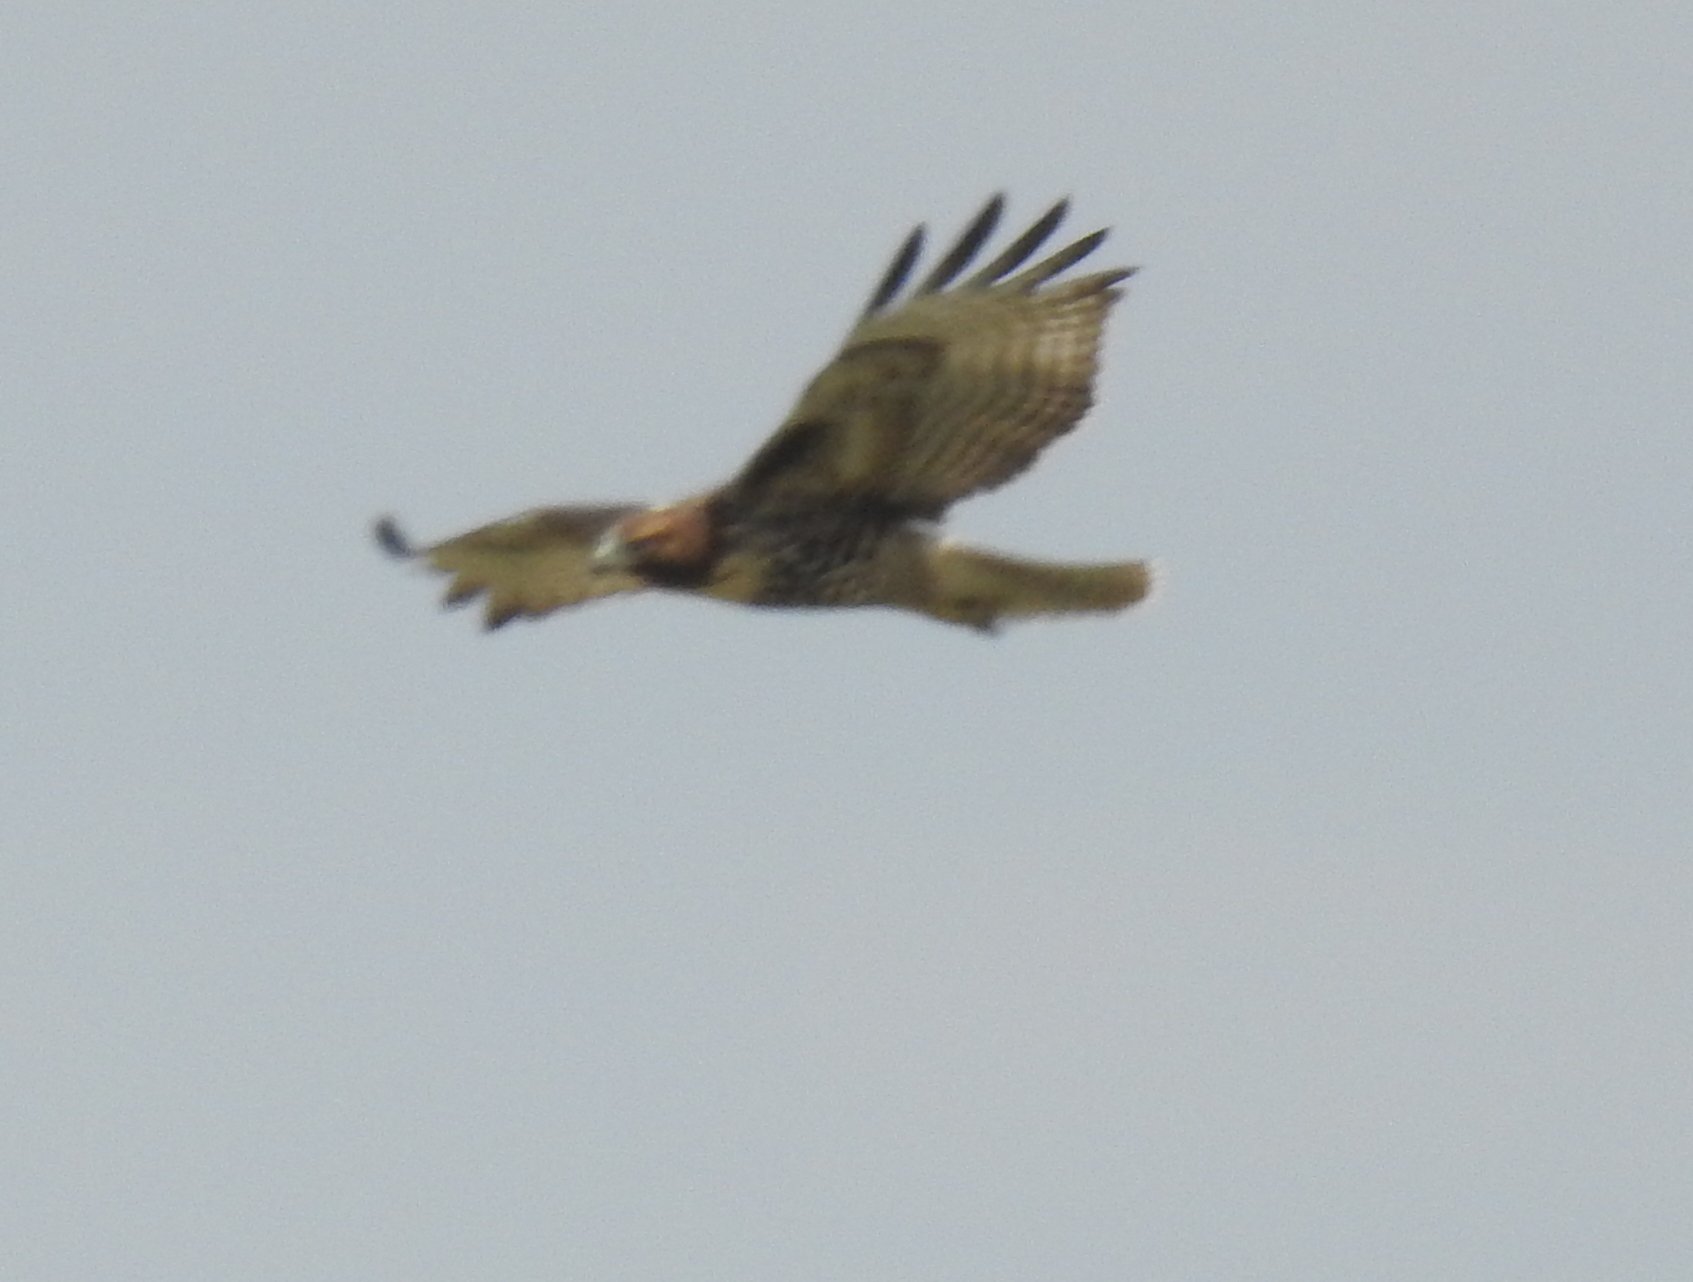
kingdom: Animalia
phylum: Chordata
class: Aves
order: Accipitriformes
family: Accipitridae
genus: Buteo
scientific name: Buteo jamaicensis
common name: Red-tailed hawk
